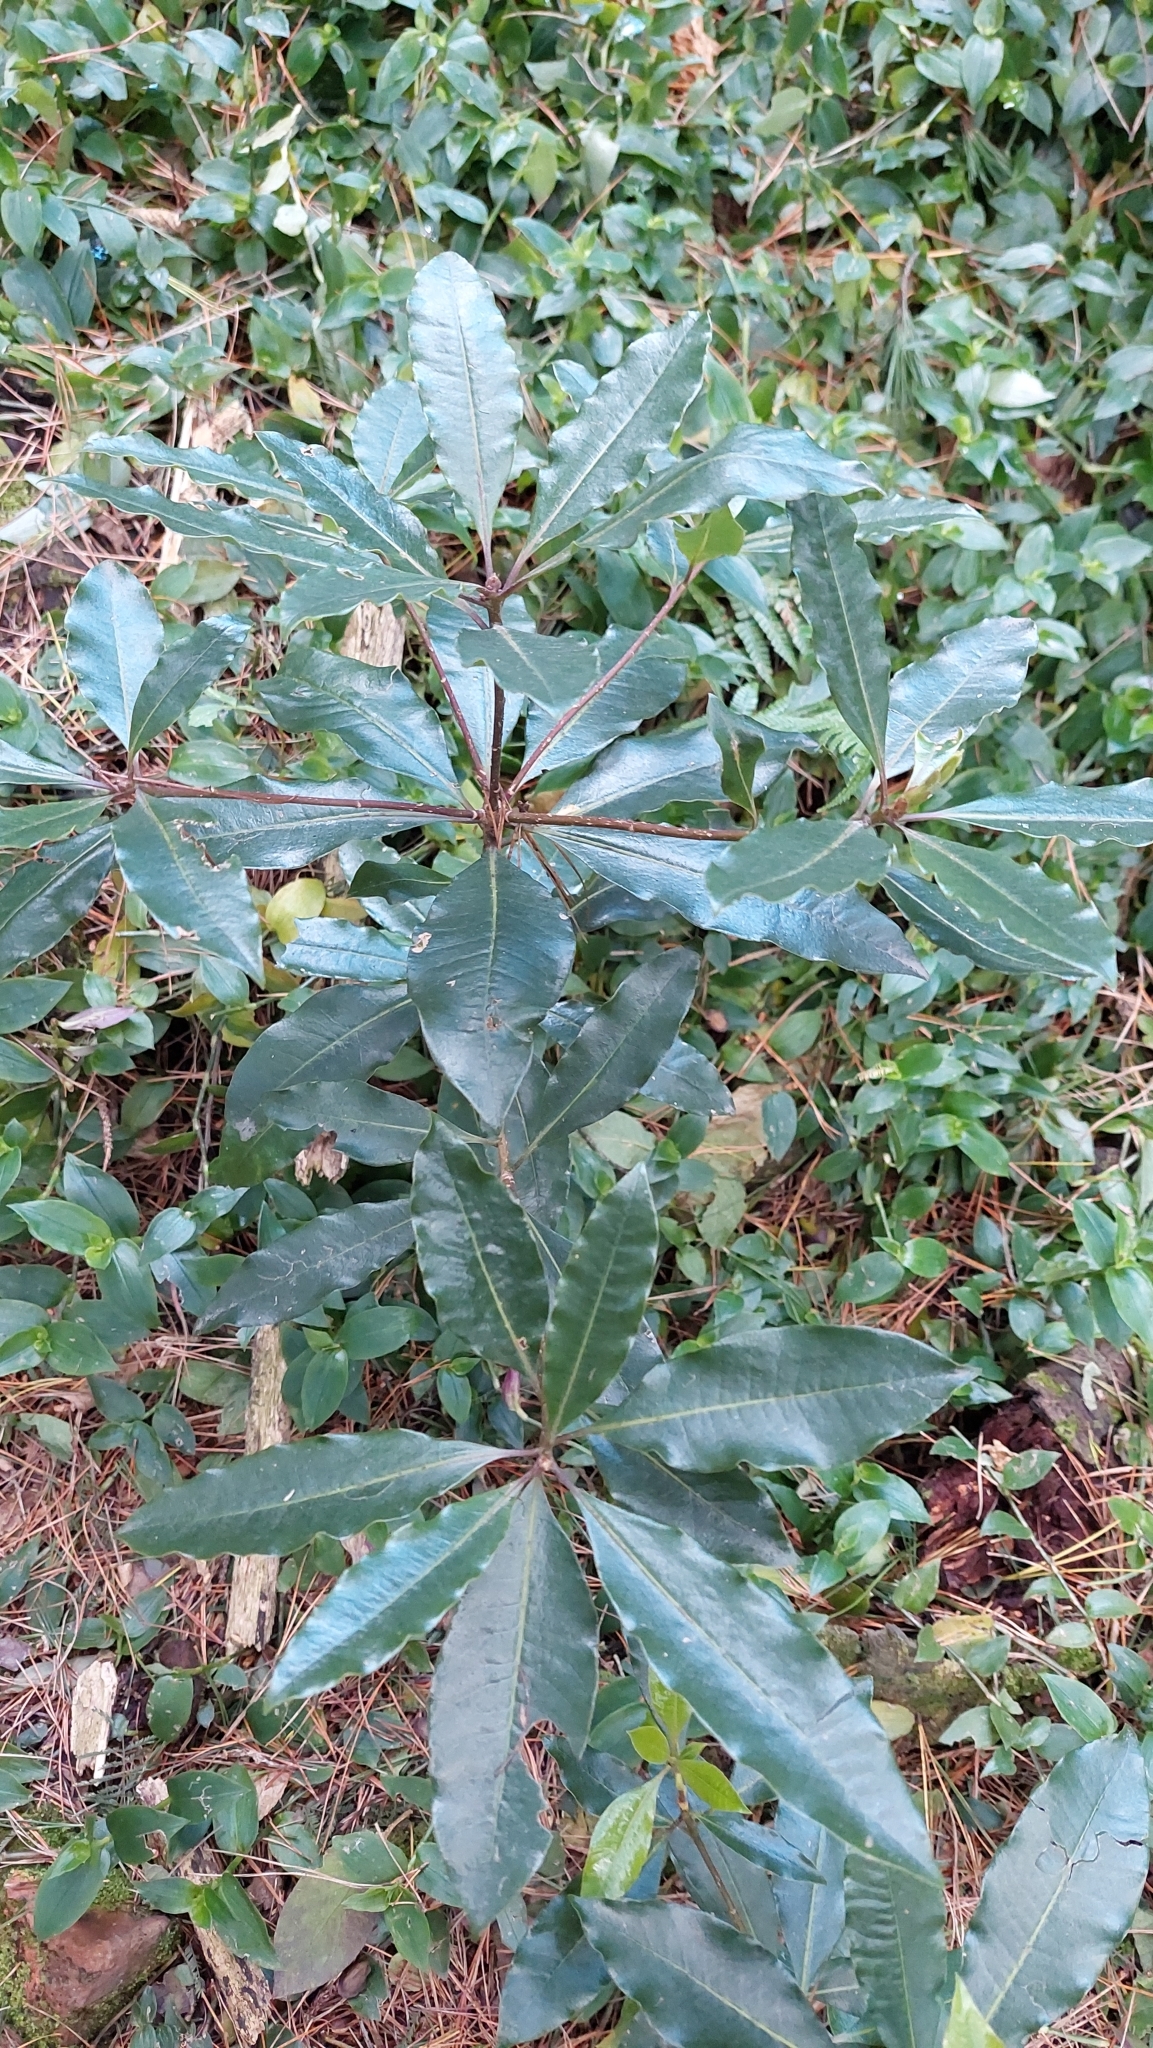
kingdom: Plantae
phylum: Tracheophyta
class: Magnoliopsida
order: Apiales
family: Pittosporaceae
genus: Pittosporum
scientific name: Pittosporum undulatum
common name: Australian cheesewood
